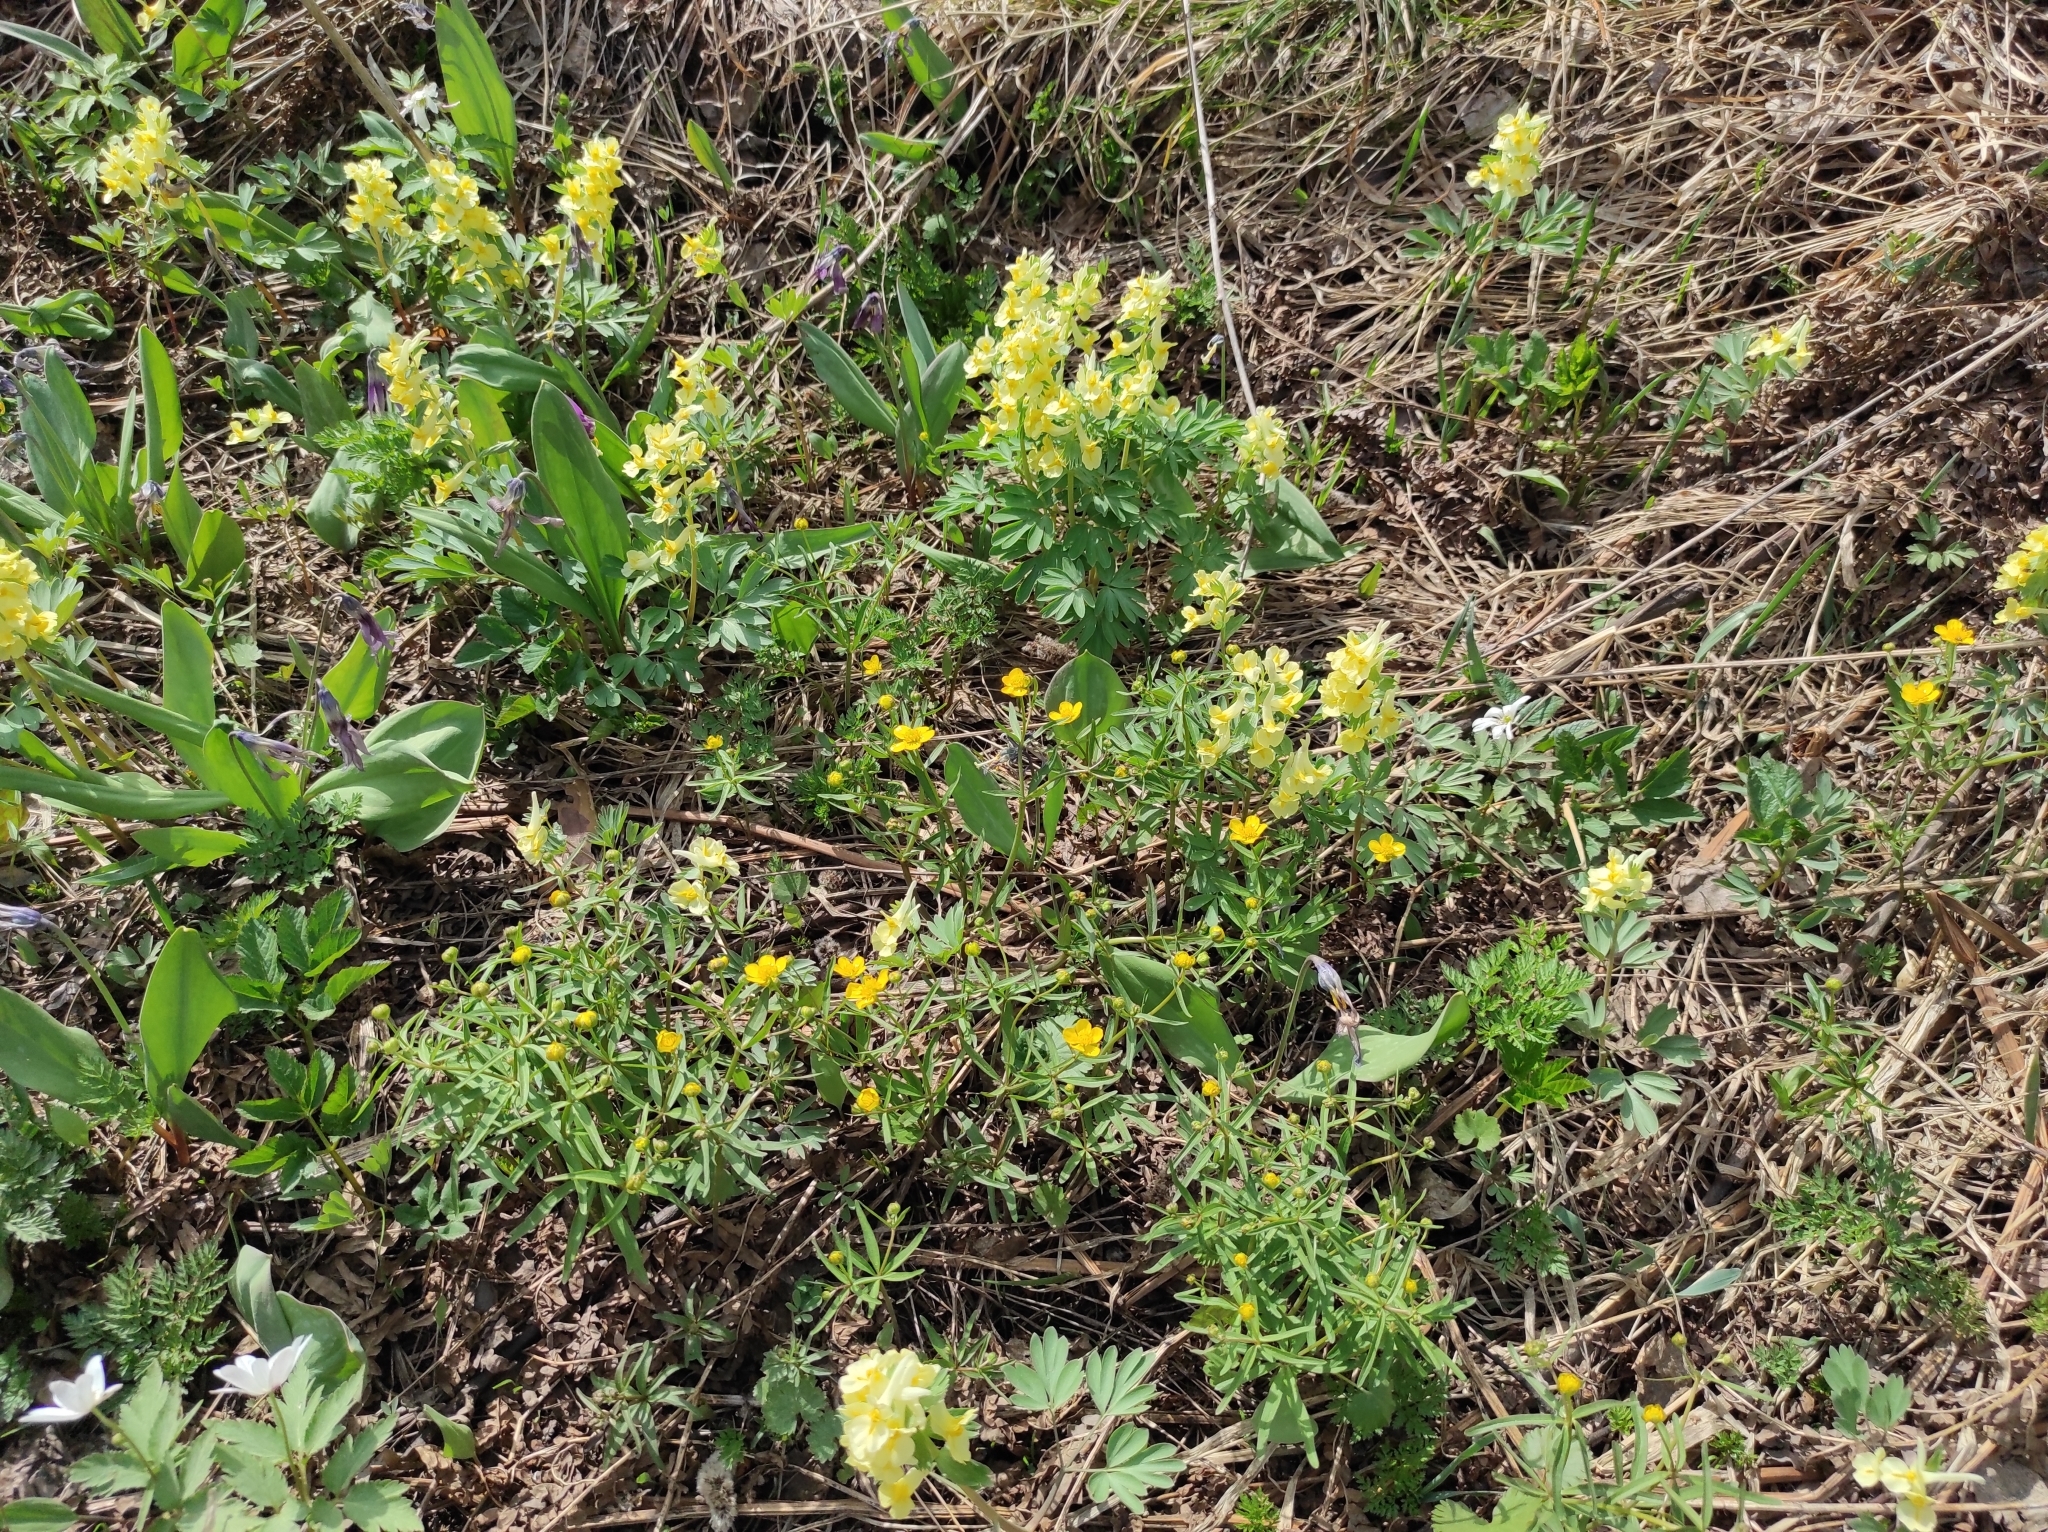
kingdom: Plantae
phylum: Tracheophyta
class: Magnoliopsida
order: Ranunculales
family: Papaveraceae
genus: Corydalis
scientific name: Corydalis bracteata
